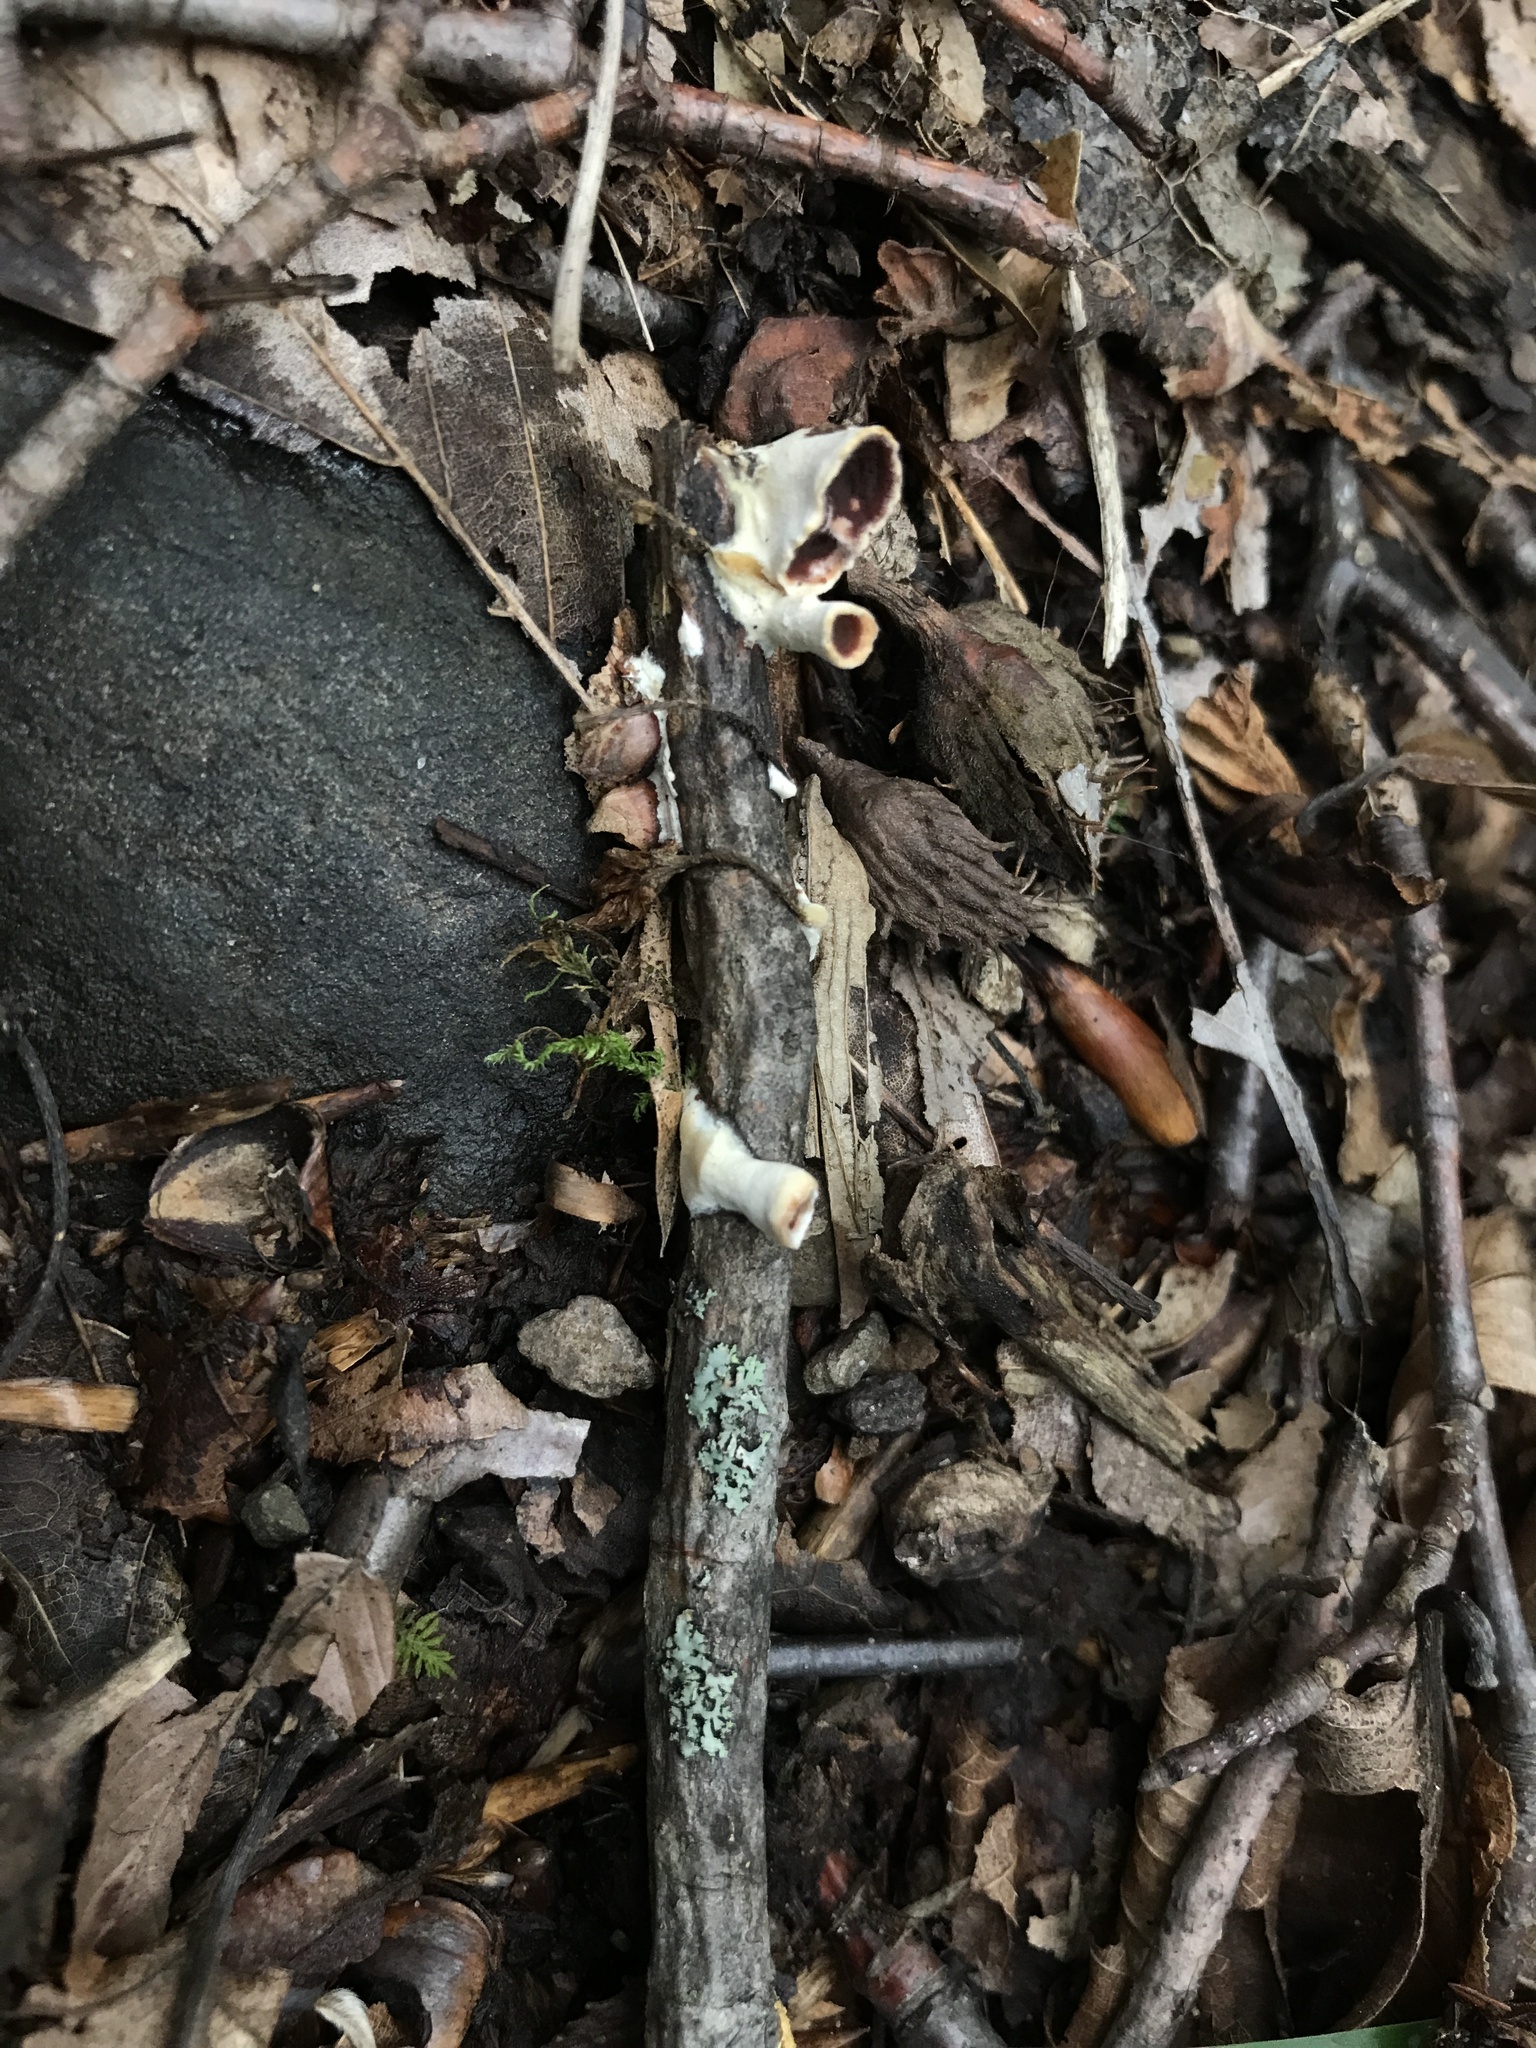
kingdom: Fungi
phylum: Basidiomycota
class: Agaricomycetes
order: Russulales
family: Peniophoraceae
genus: Scytinostroma
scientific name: Scytinostroma artocreas
